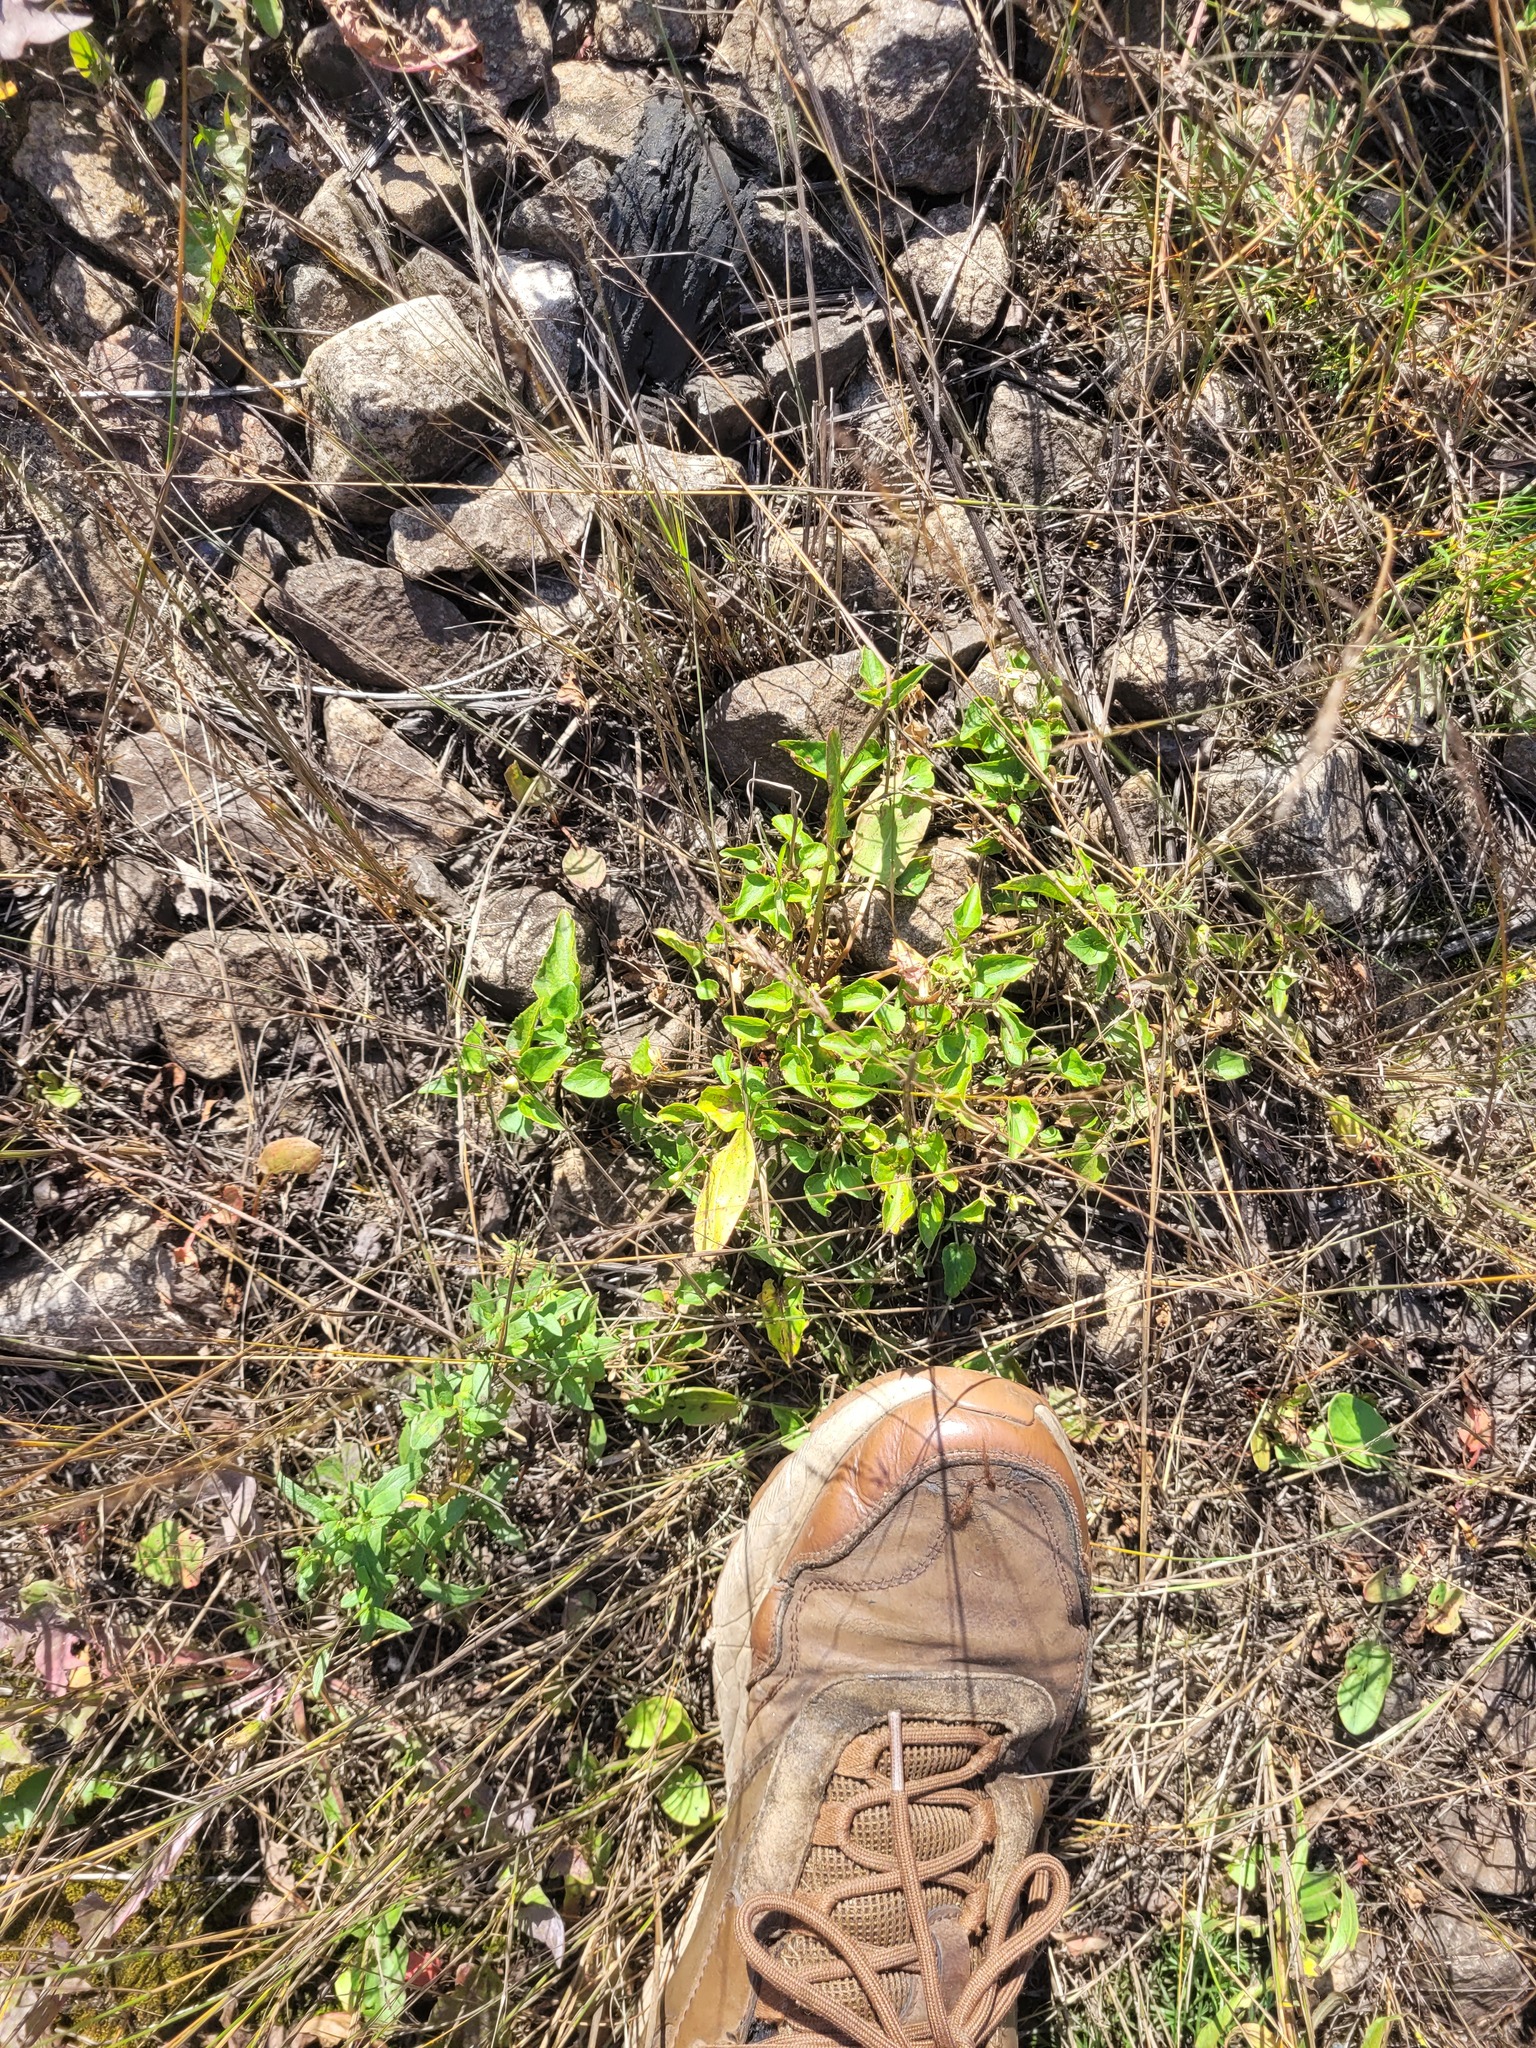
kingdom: Plantae
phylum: Tracheophyta
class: Magnoliopsida
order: Malpighiales
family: Violaceae
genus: Viola
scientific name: Viola canina
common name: Heath dog-violet
